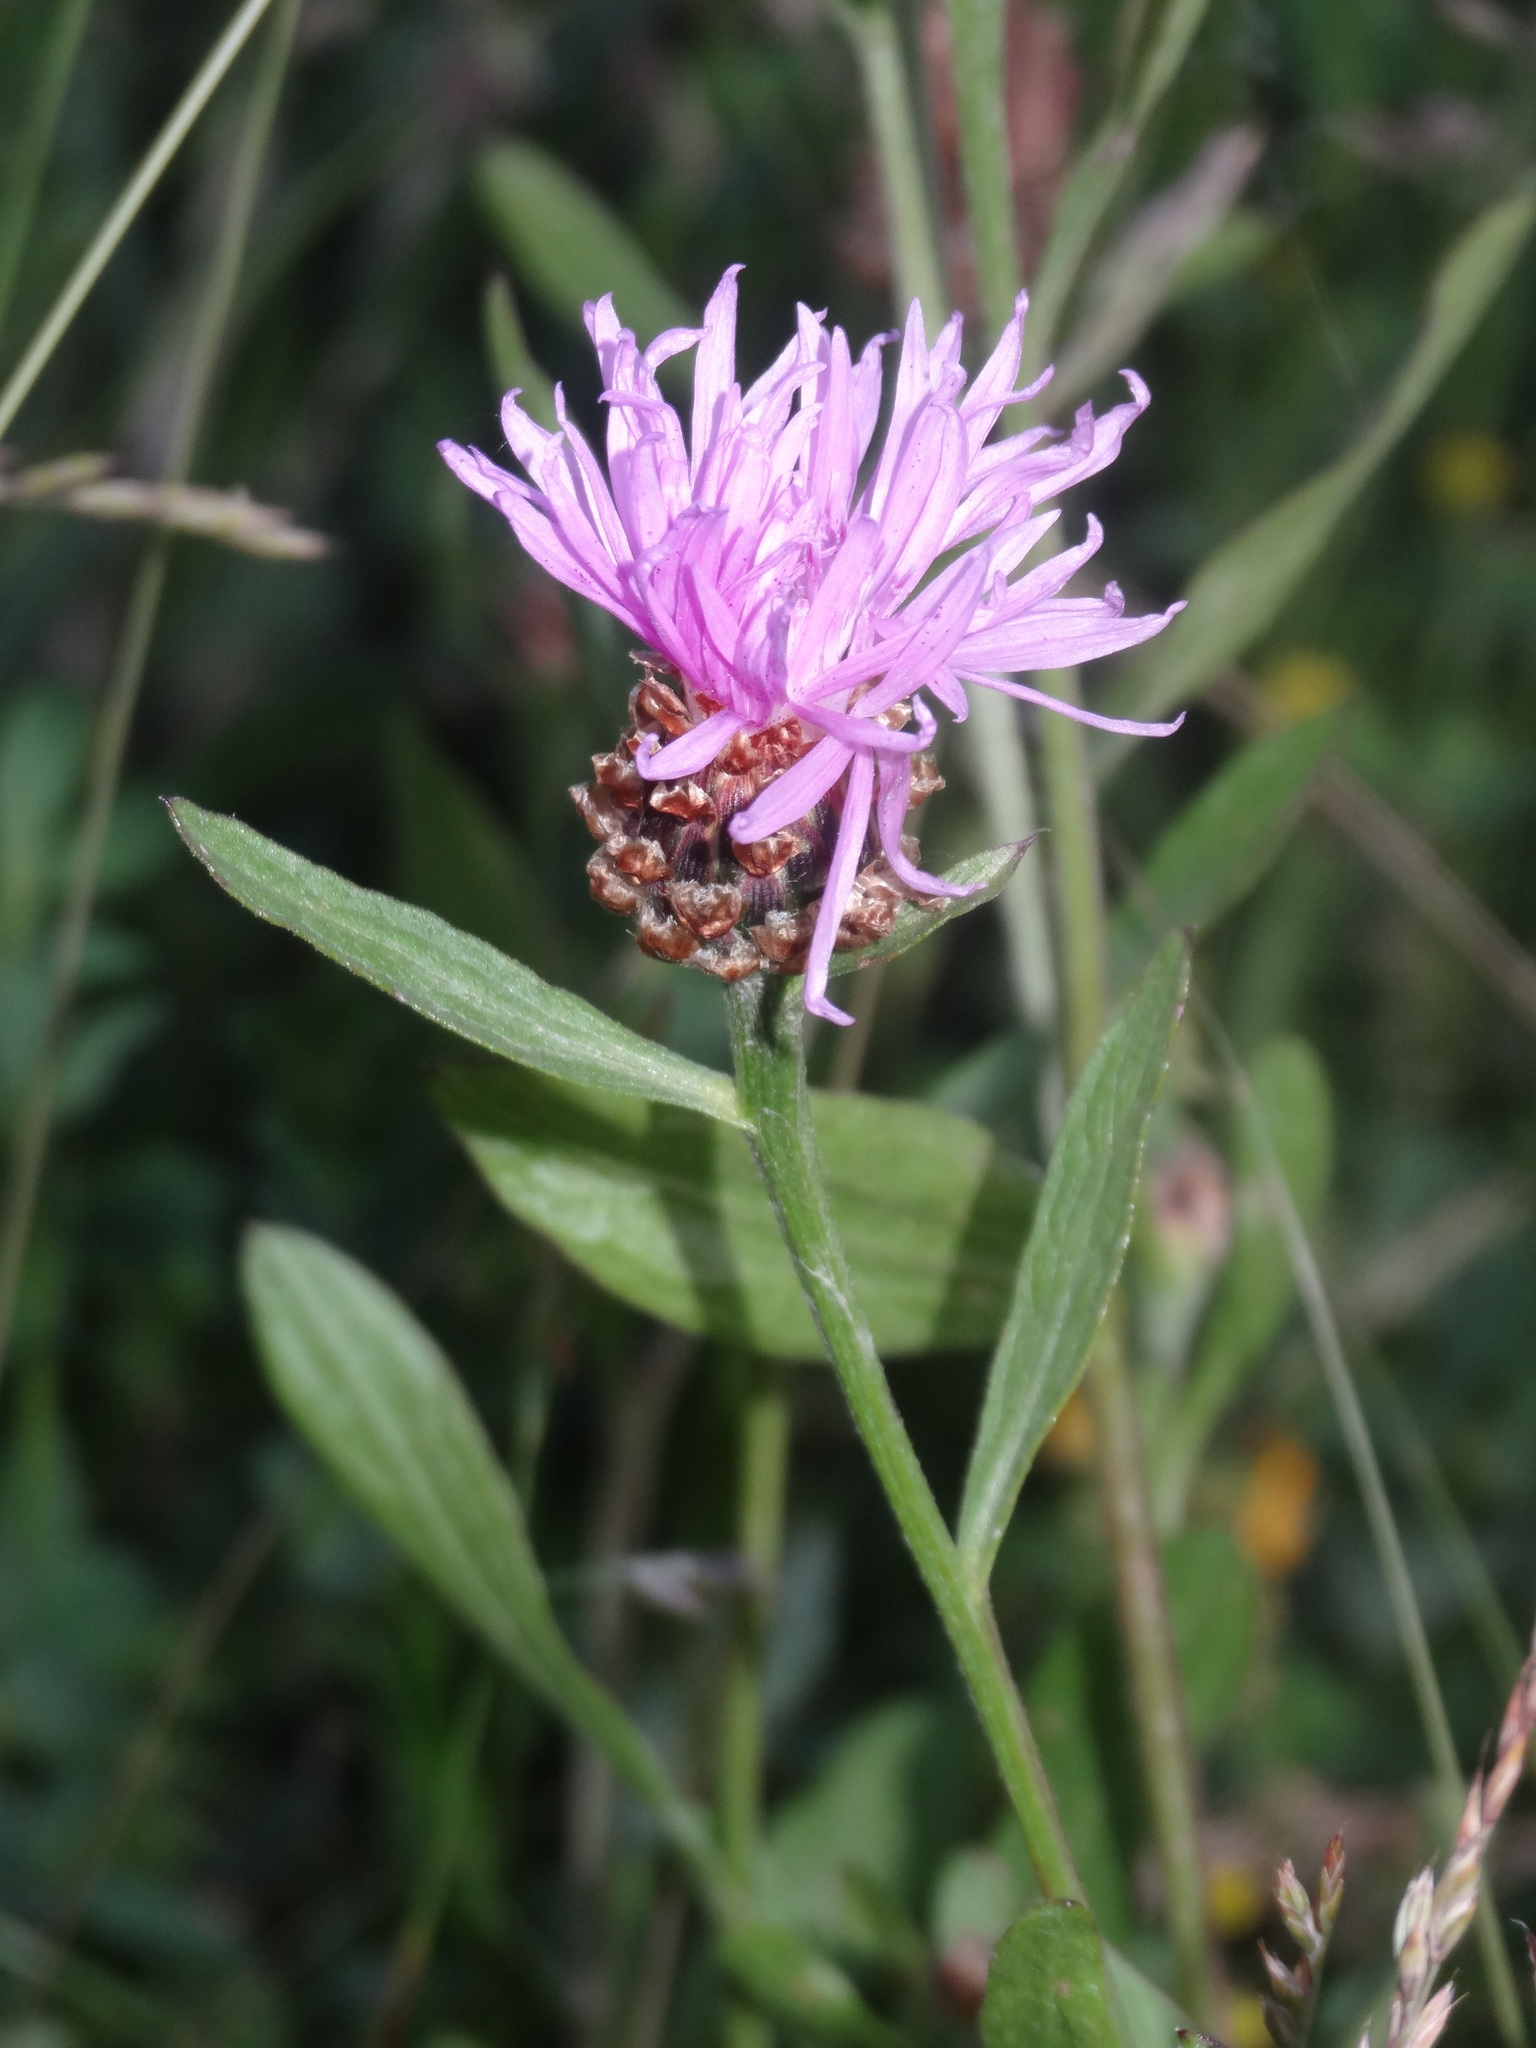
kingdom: Plantae
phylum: Tracheophyta
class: Magnoliopsida
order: Asterales
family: Asteraceae
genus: Centaurea
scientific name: Centaurea jacea
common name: Brown knapweed
